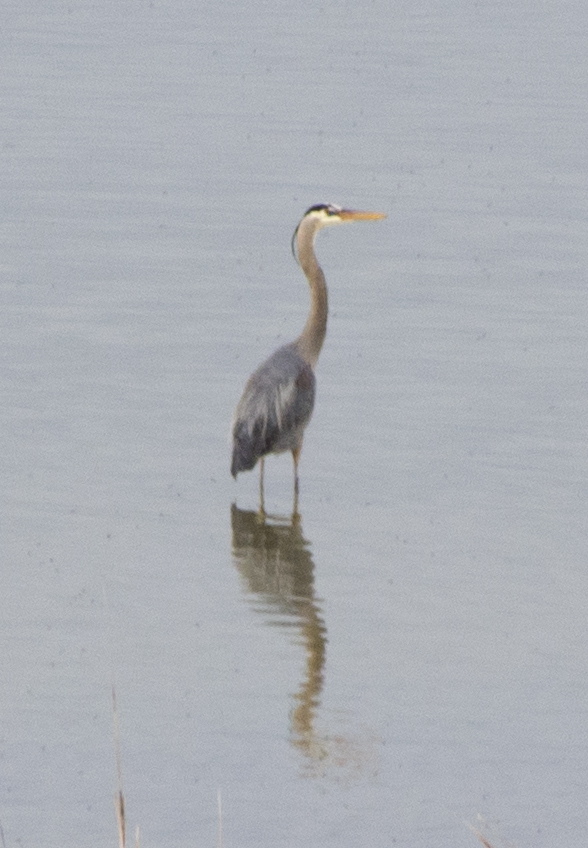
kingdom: Animalia
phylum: Chordata
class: Aves
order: Pelecaniformes
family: Ardeidae
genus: Ardea
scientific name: Ardea herodias
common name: Great blue heron
